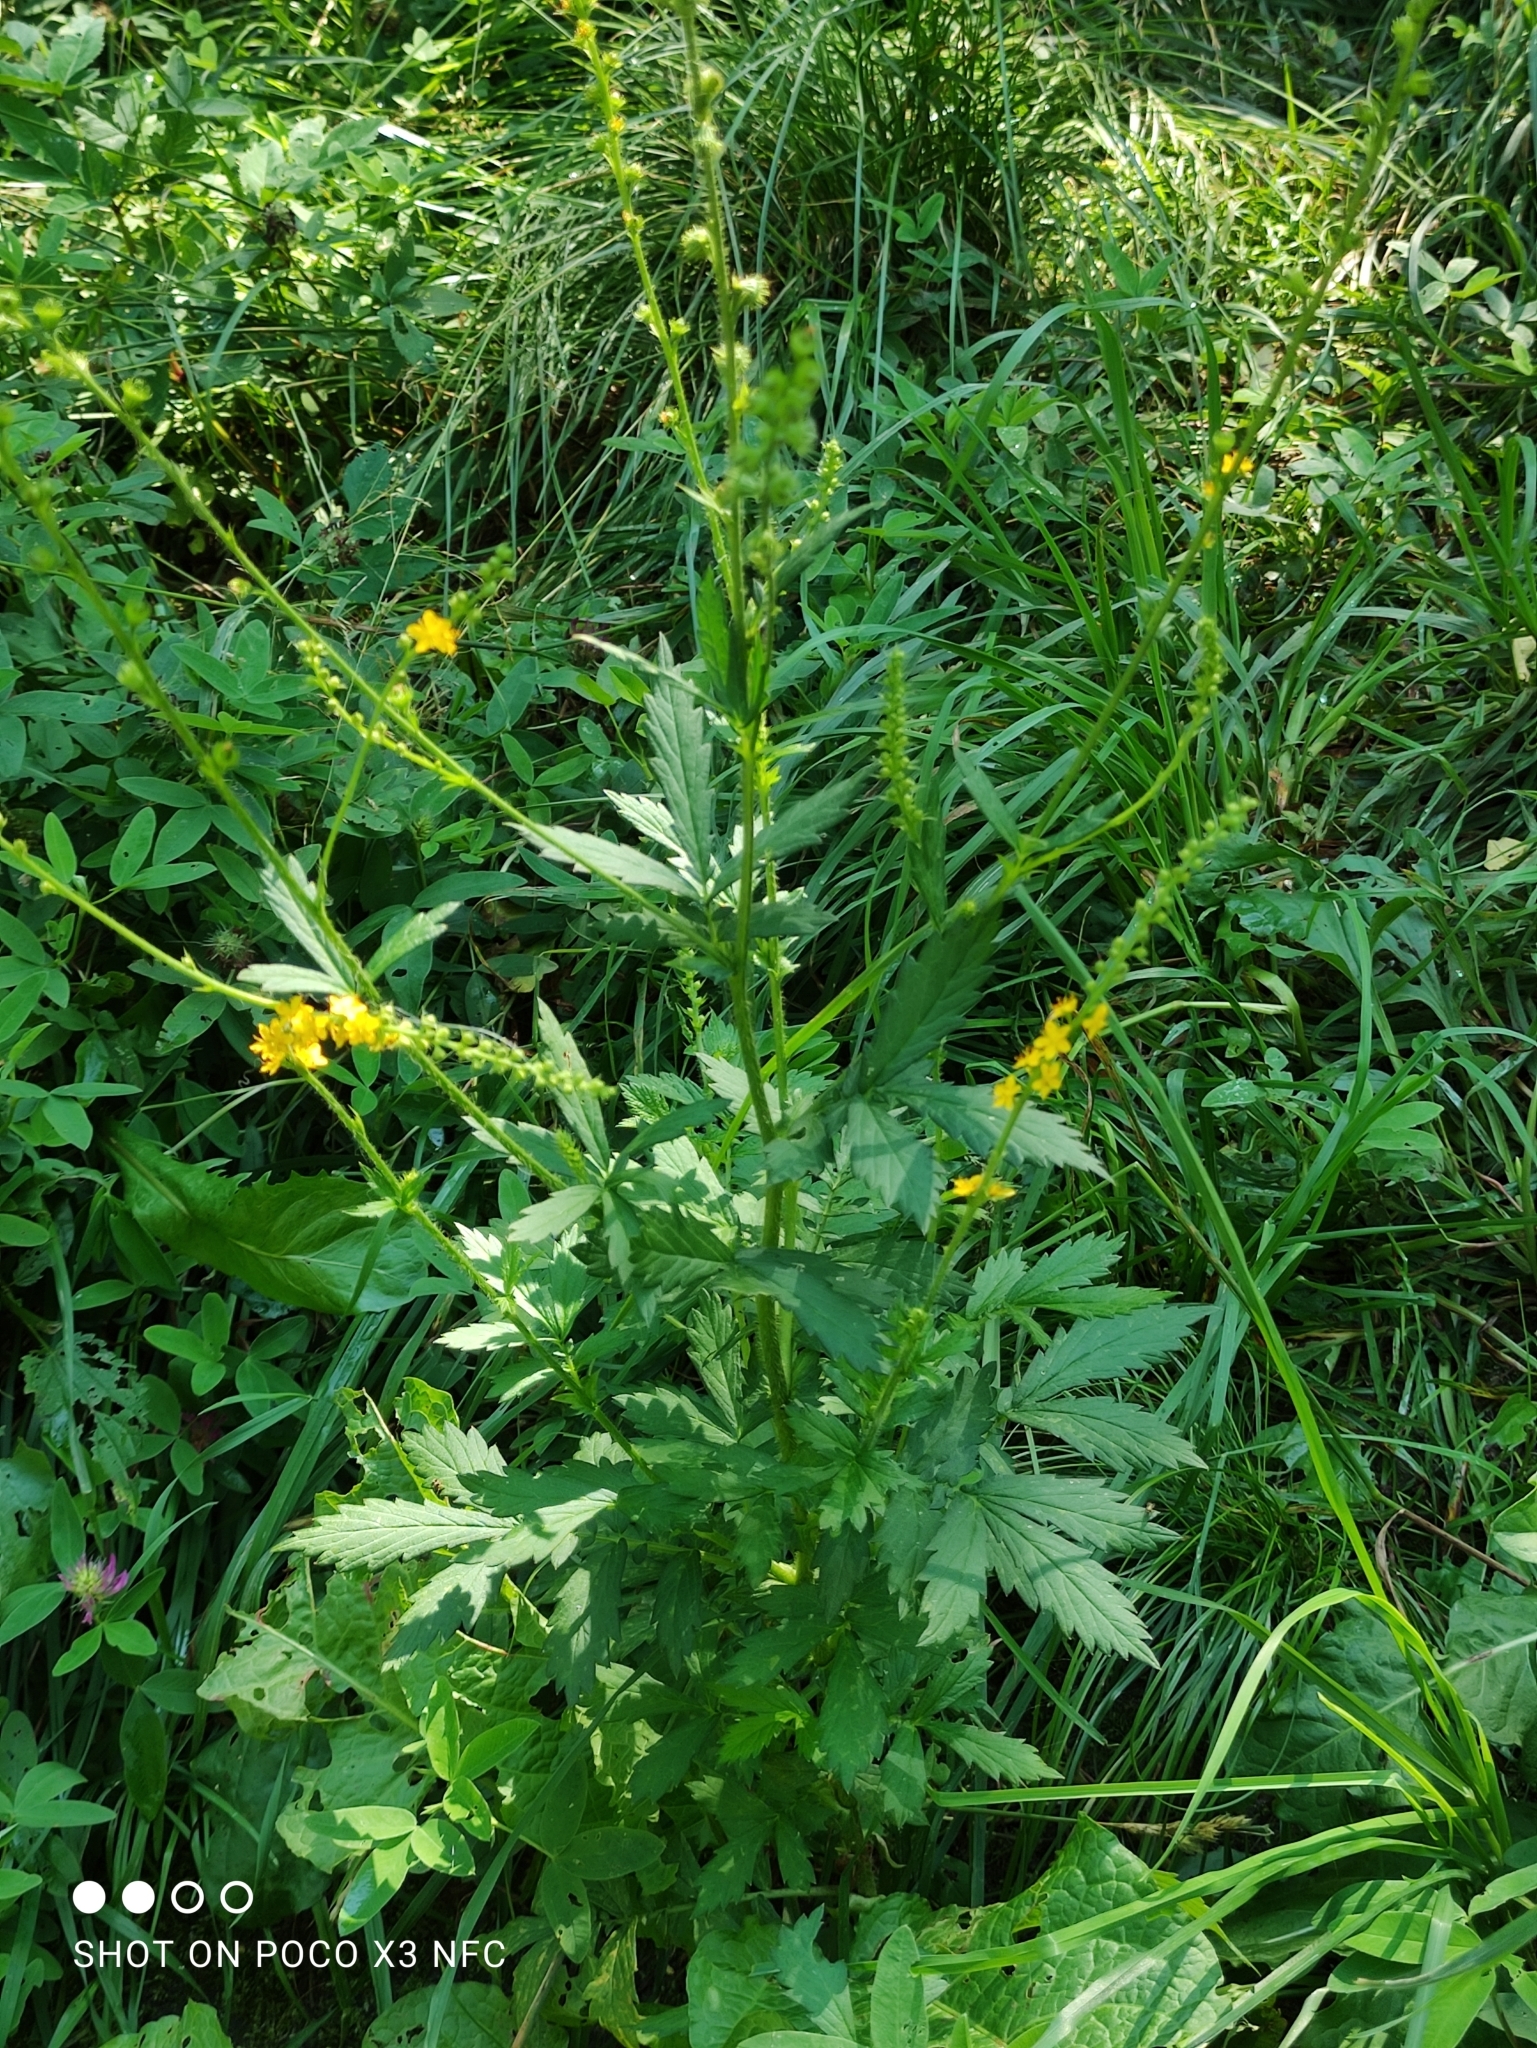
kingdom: Plantae
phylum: Tracheophyta
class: Magnoliopsida
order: Rosales
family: Rosaceae
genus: Agrimonia
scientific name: Agrimonia pilosa
